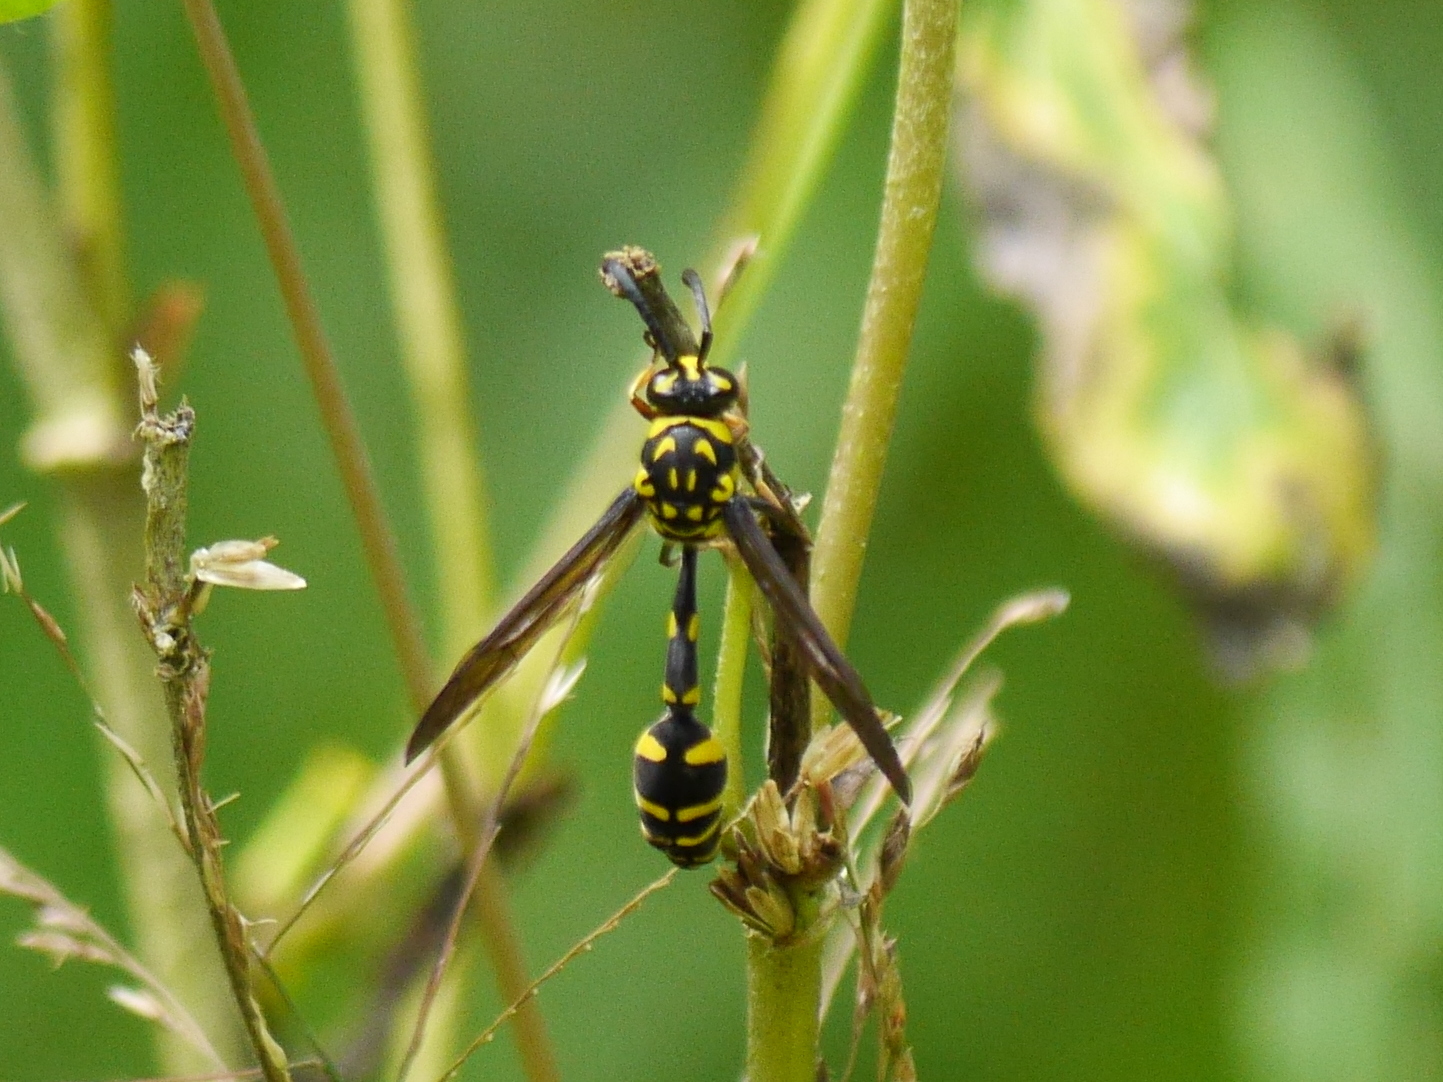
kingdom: Animalia
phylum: Arthropoda
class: Insecta
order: Hymenoptera
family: Eumenidae
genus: Phimenes
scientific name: Phimenes flavopictus
